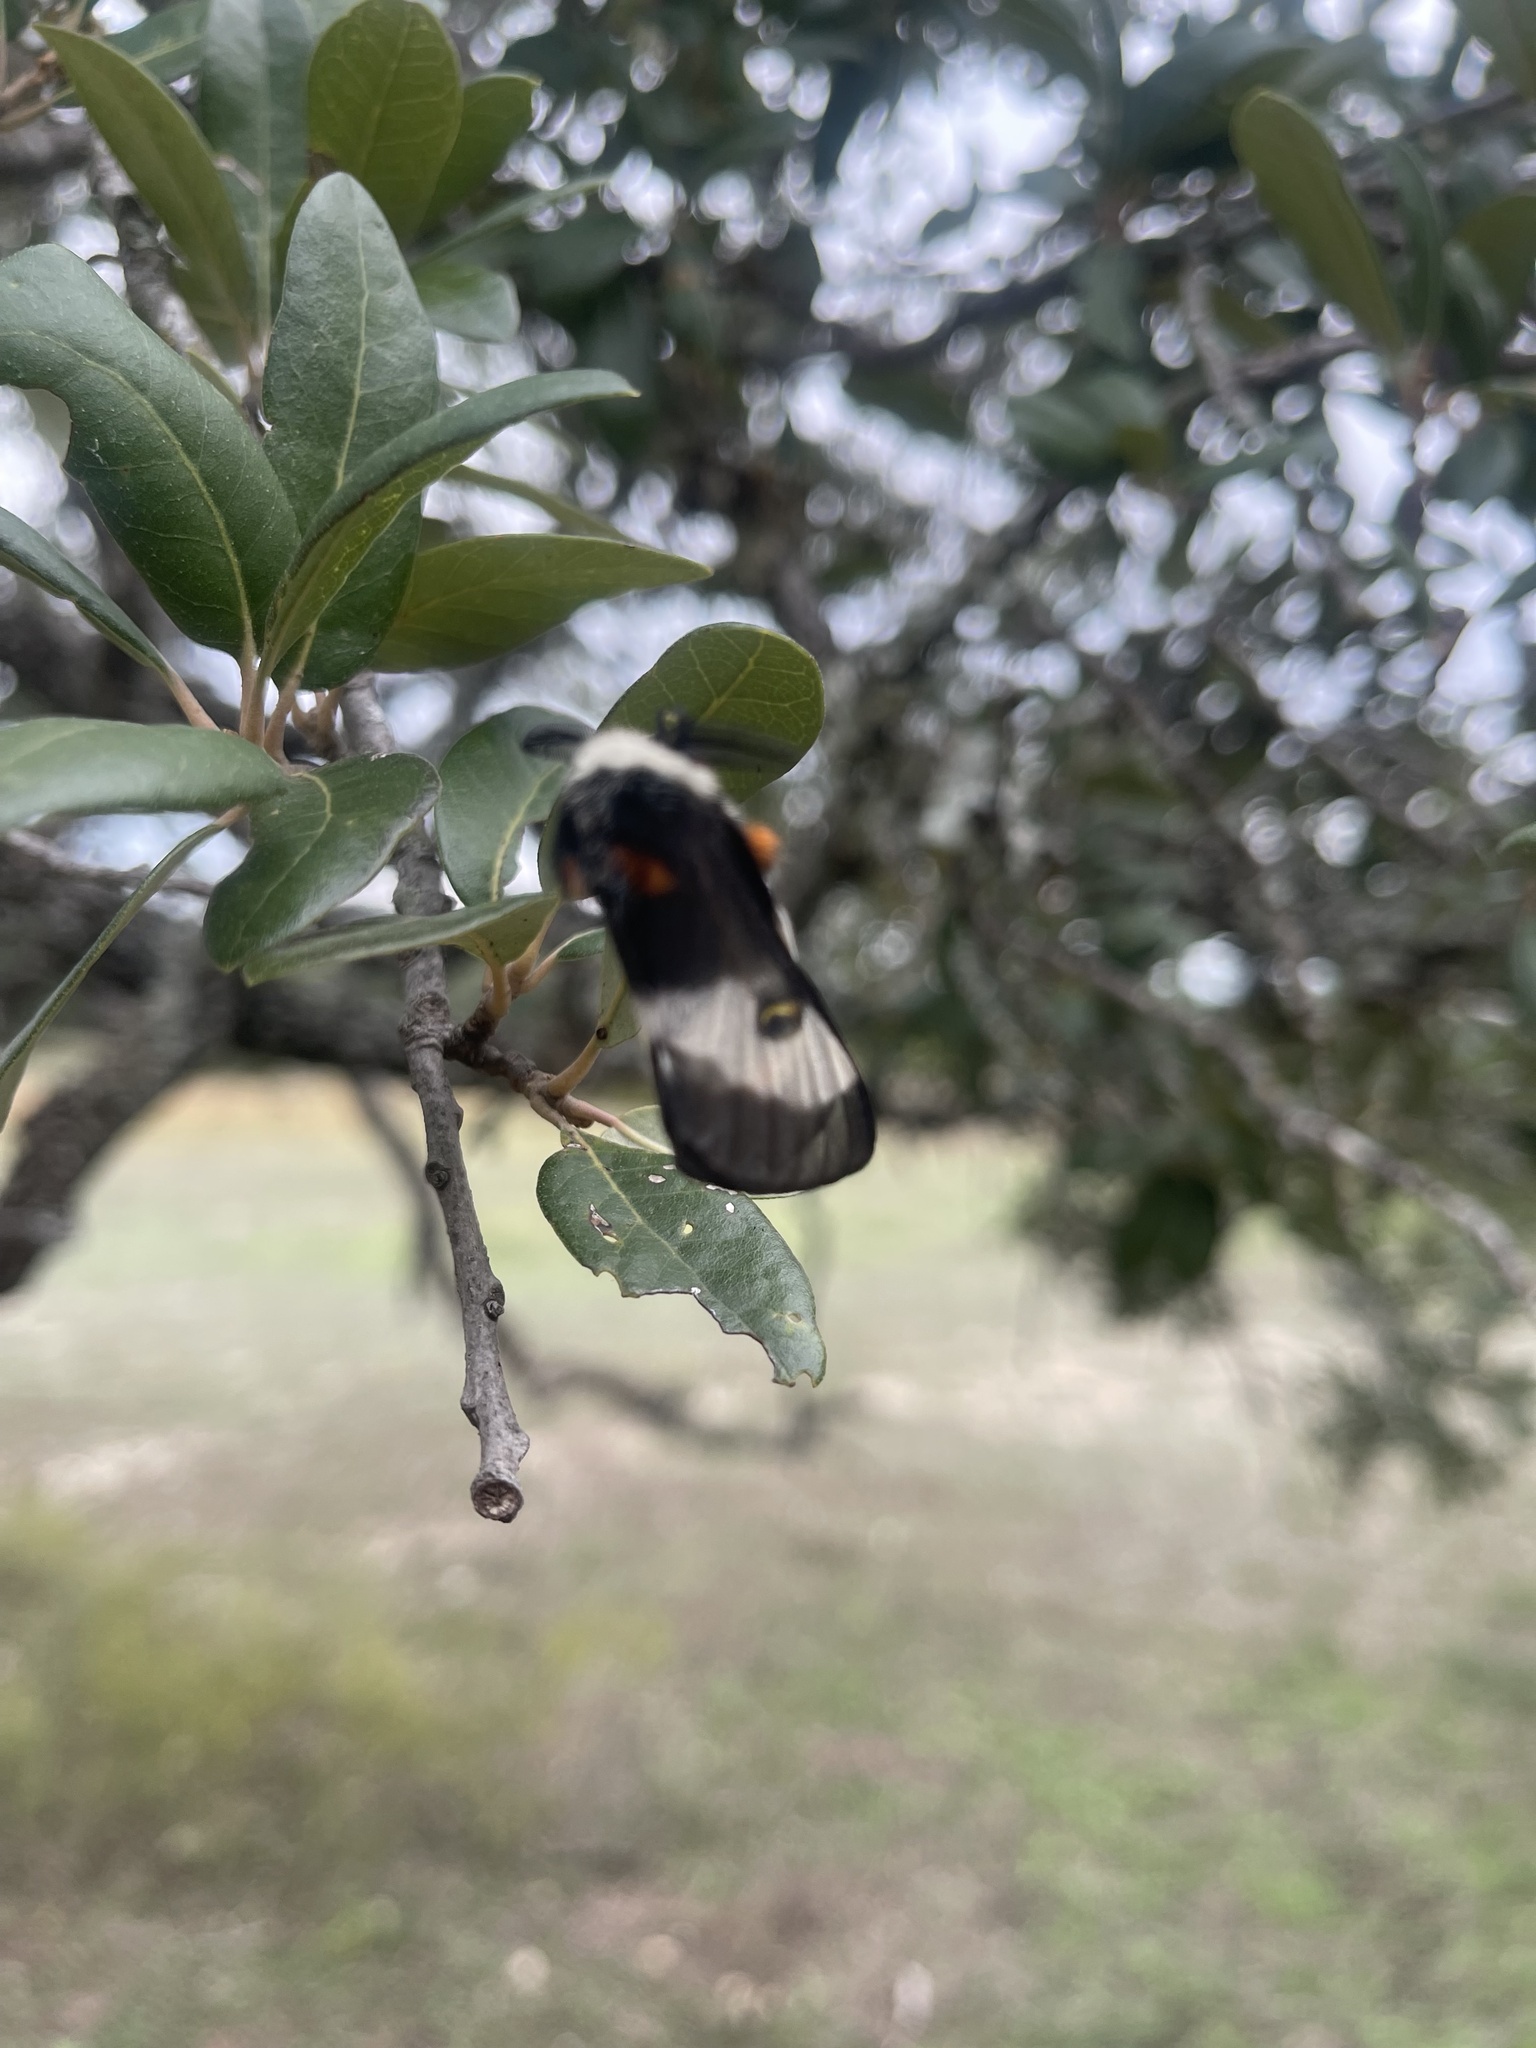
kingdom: Animalia
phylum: Arthropoda
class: Insecta
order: Lepidoptera
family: Saturniidae
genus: Hemileuca
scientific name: Hemileuca peigleri
